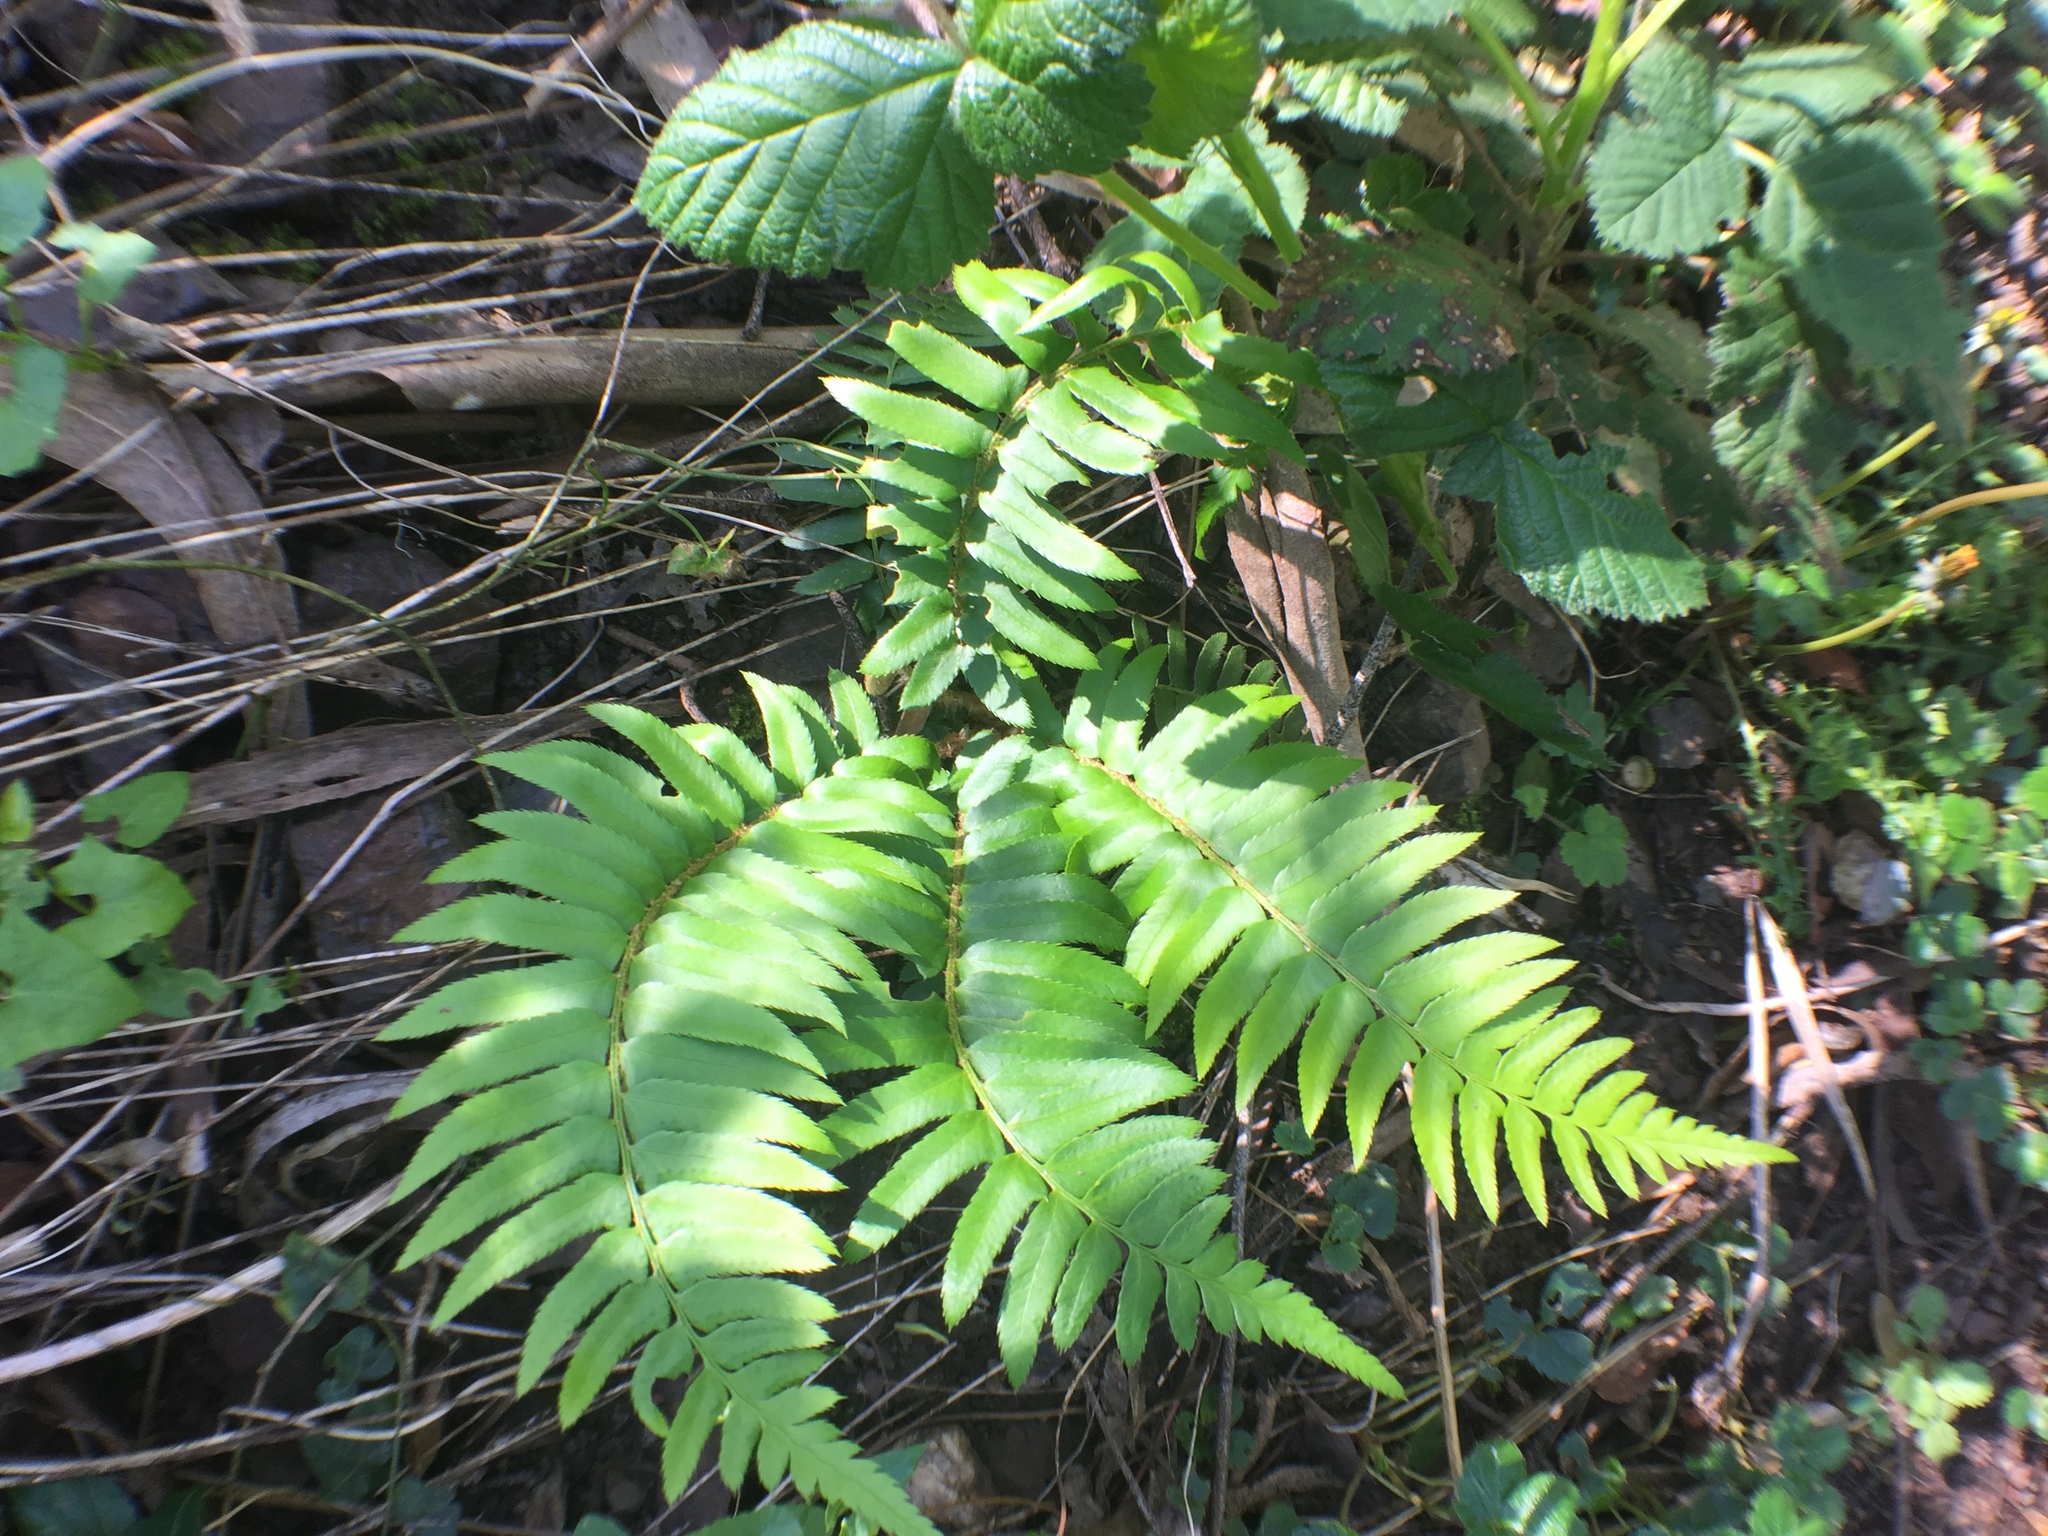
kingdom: Plantae
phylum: Tracheophyta
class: Polypodiopsida
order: Polypodiales
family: Dryopteridaceae
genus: Polystichum
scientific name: Polystichum munitum
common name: Western sword-fern
